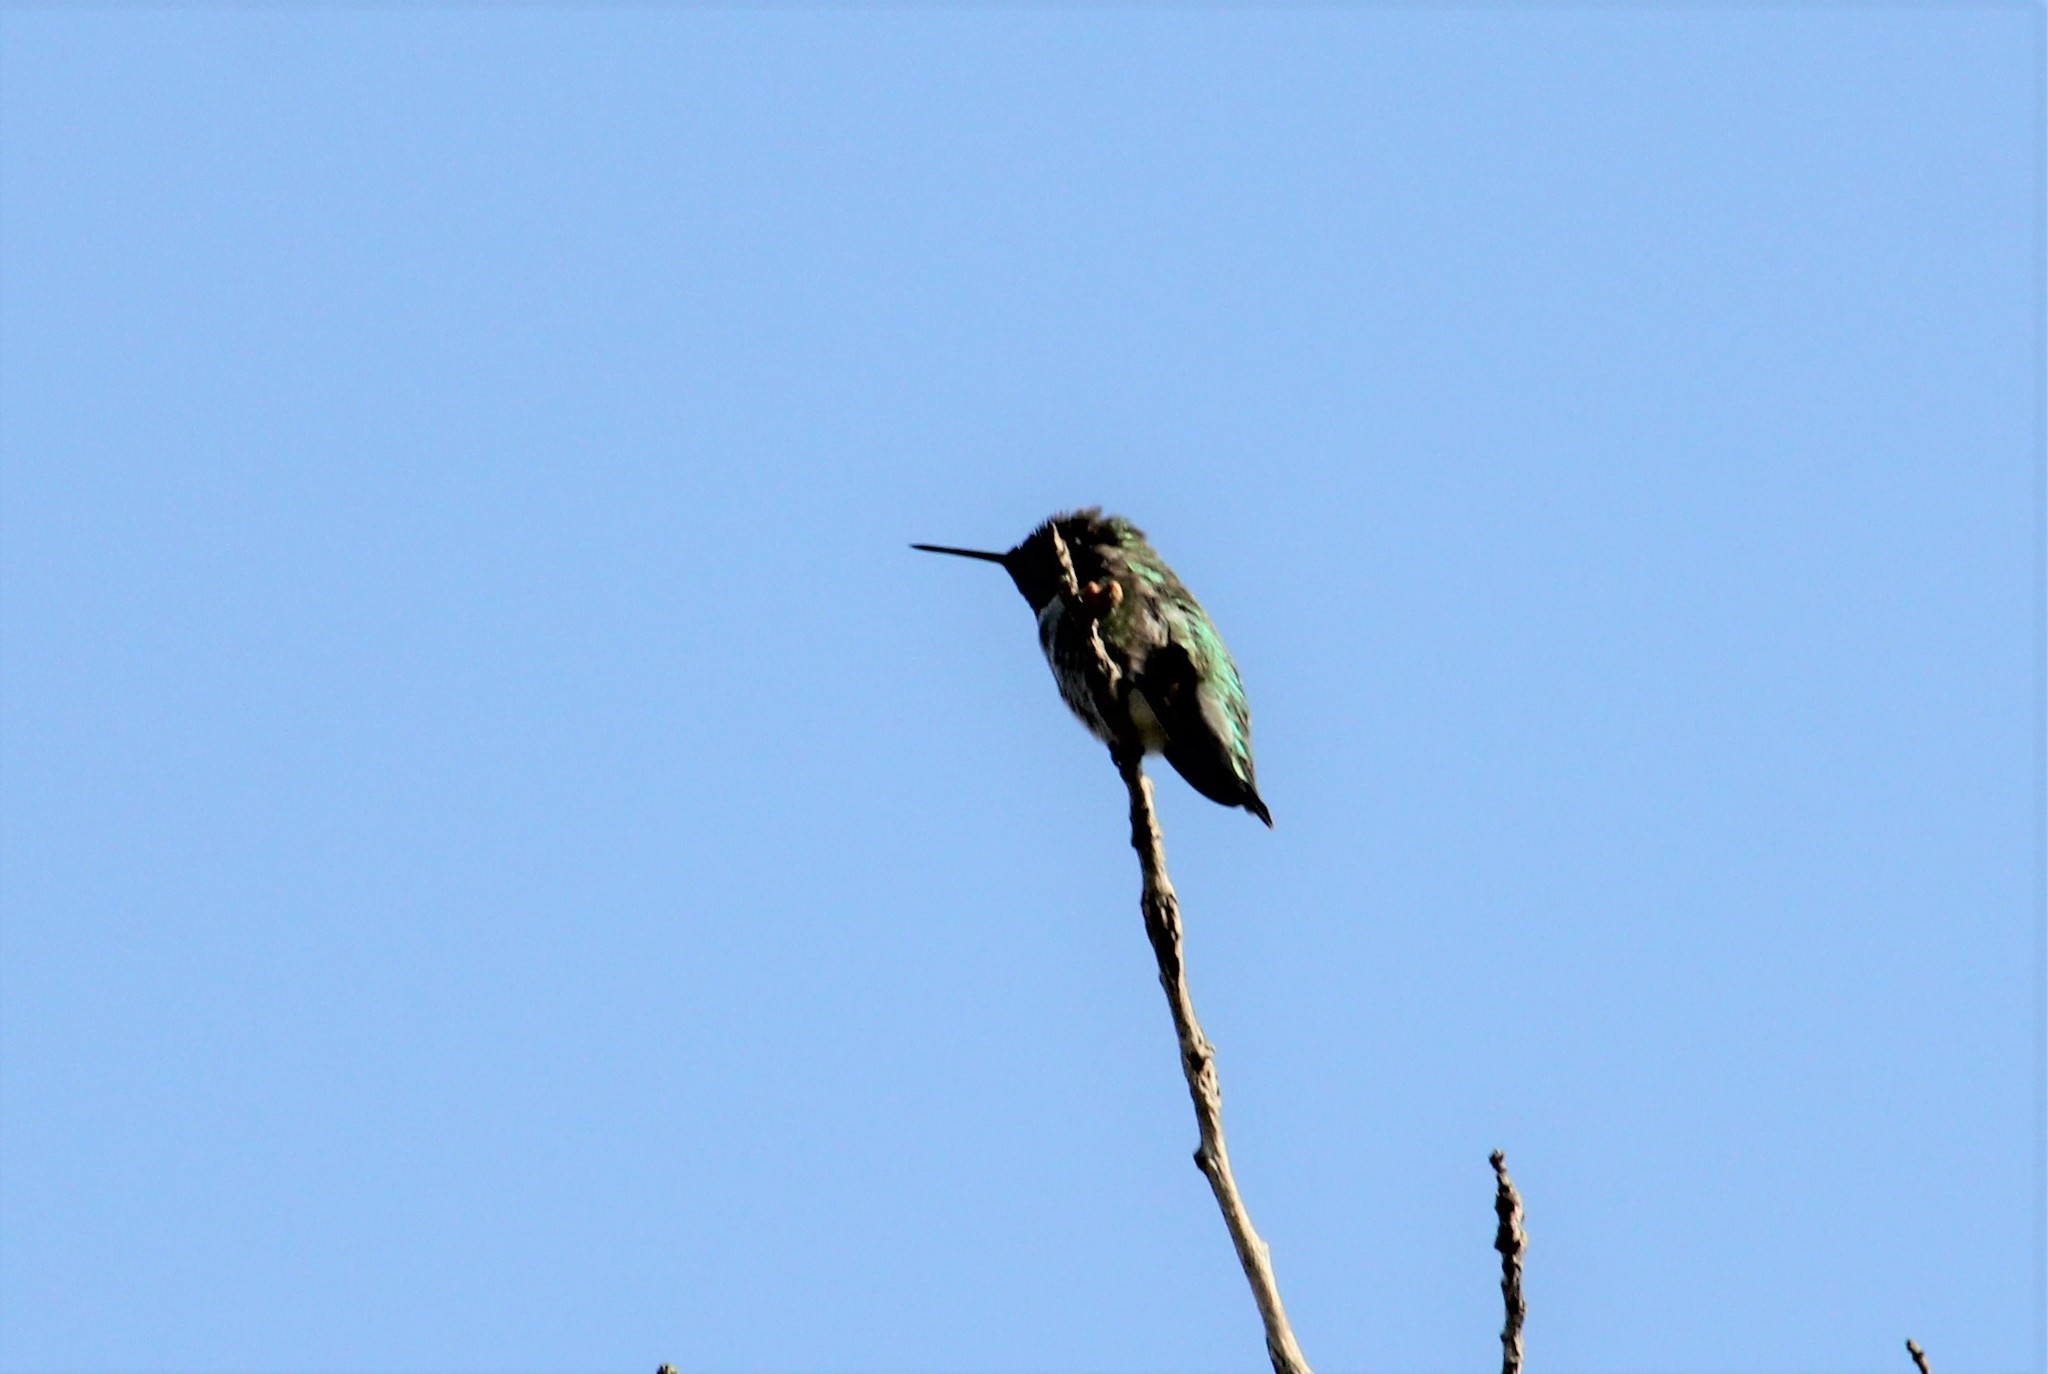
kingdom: Animalia
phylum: Chordata
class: Aves
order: Apodiformes
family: Trochilidae
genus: Calypte
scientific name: Calypte anna
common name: Anna's hummingbird
